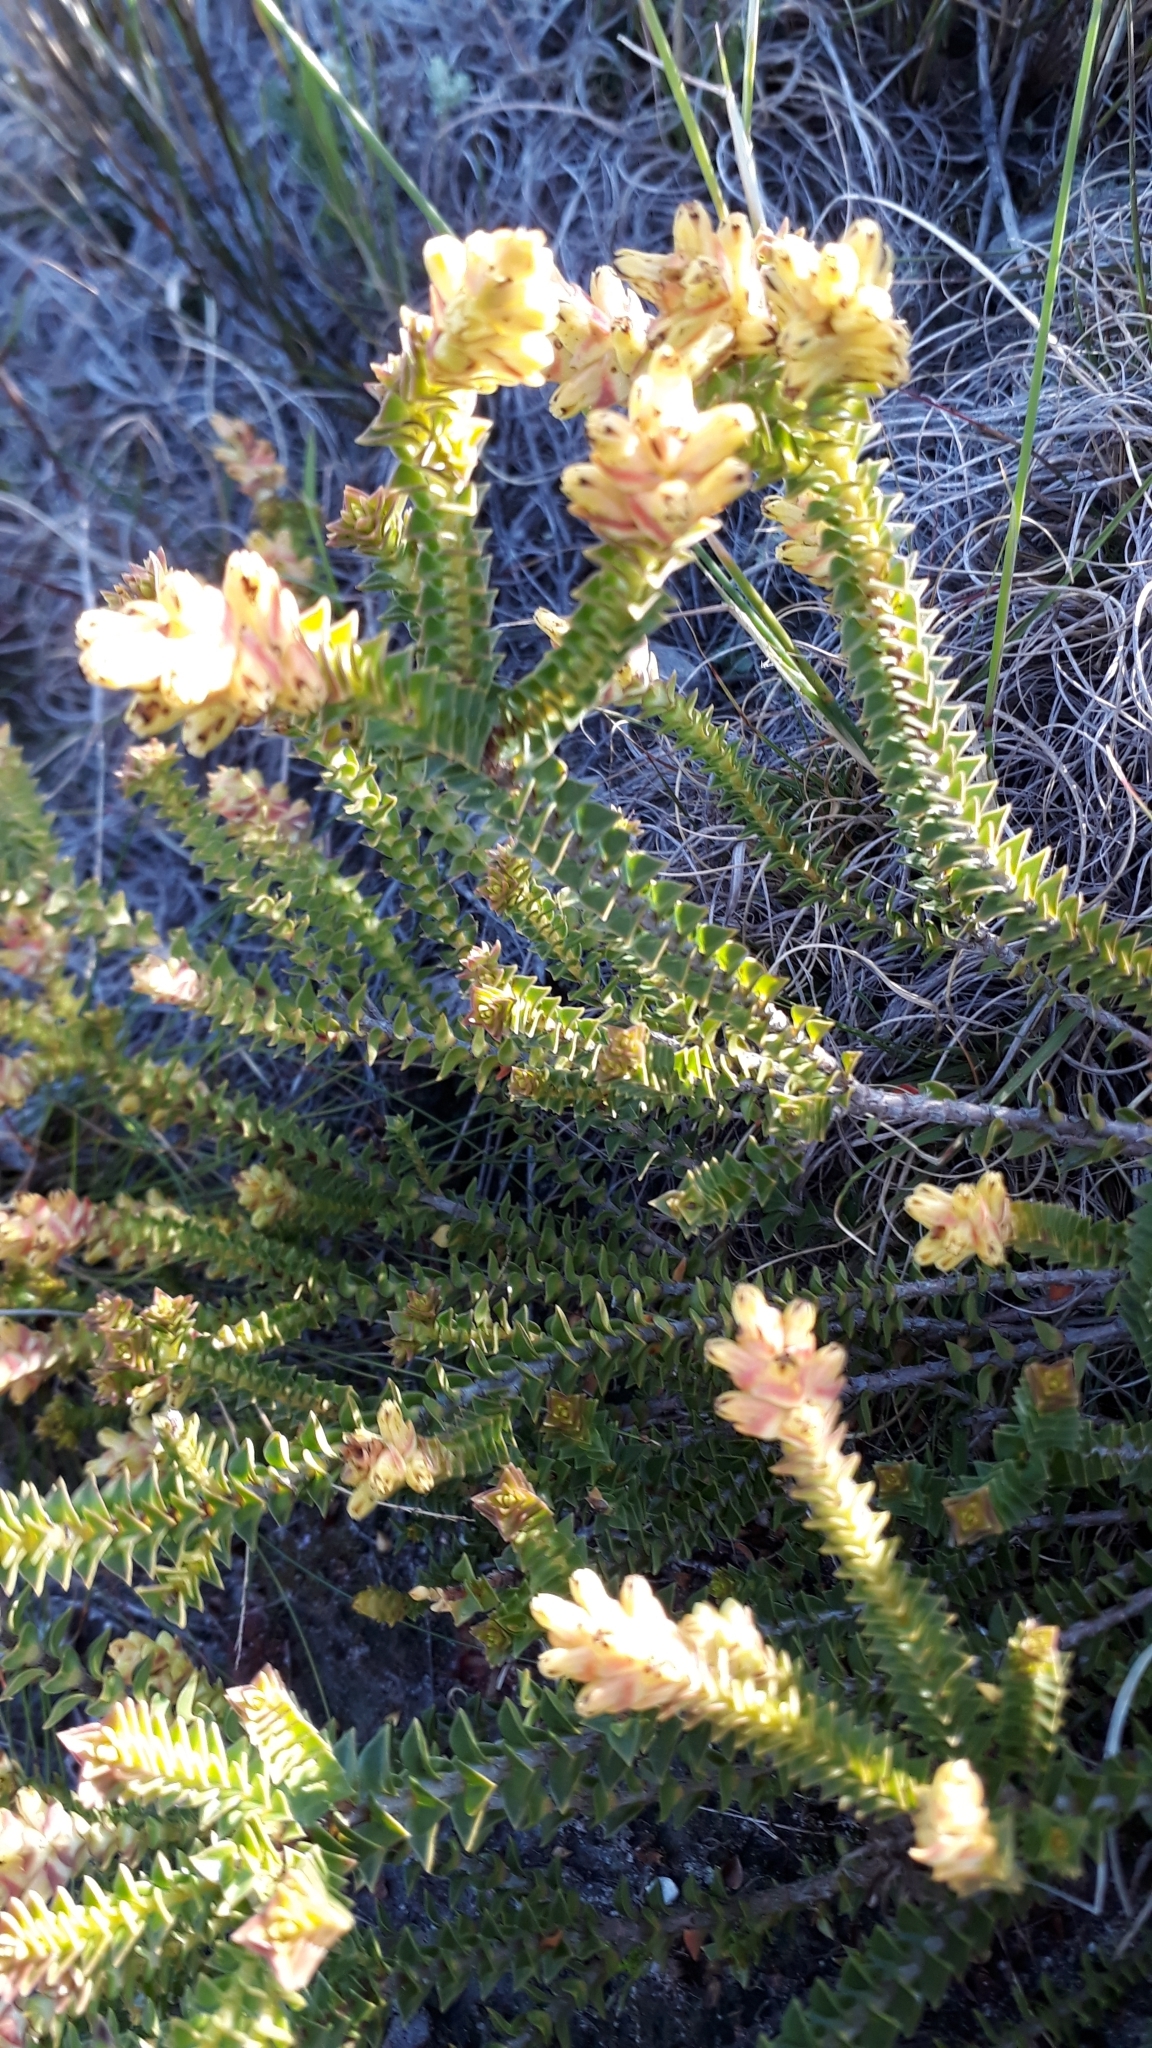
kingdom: Plantae
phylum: Tracheophyta
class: Magnoliopsida
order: Myrtales
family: Penaeaceae
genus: Penaea
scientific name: Penaea mucronata
